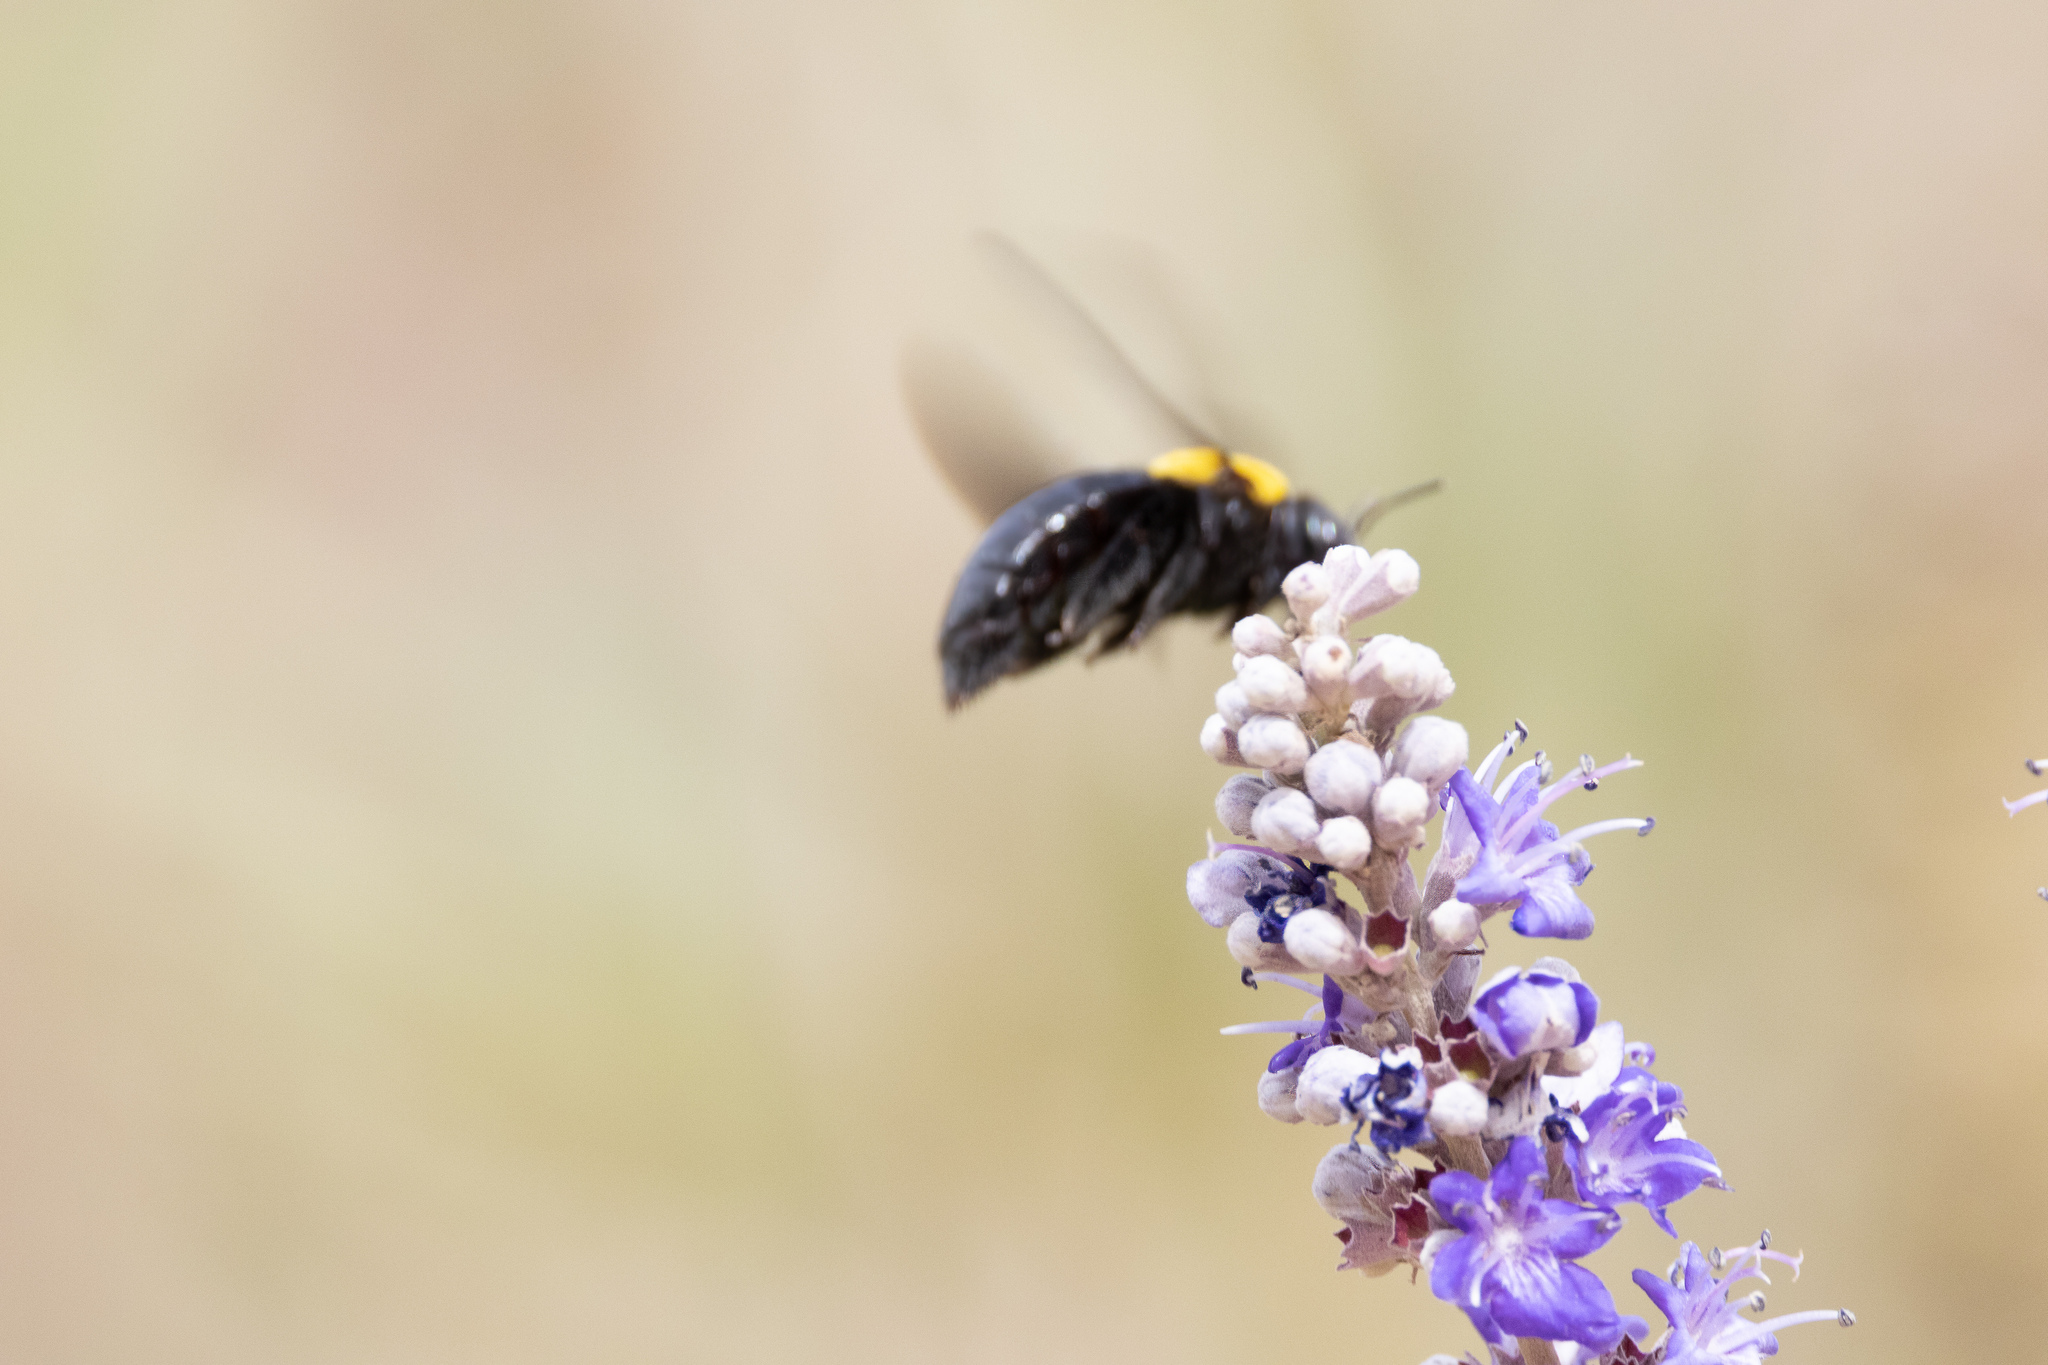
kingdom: Animalia
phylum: Arthropoda
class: Insecta
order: Hymenoptera
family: Apidae
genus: Xylocopa
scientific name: Xylocopa pubescens
